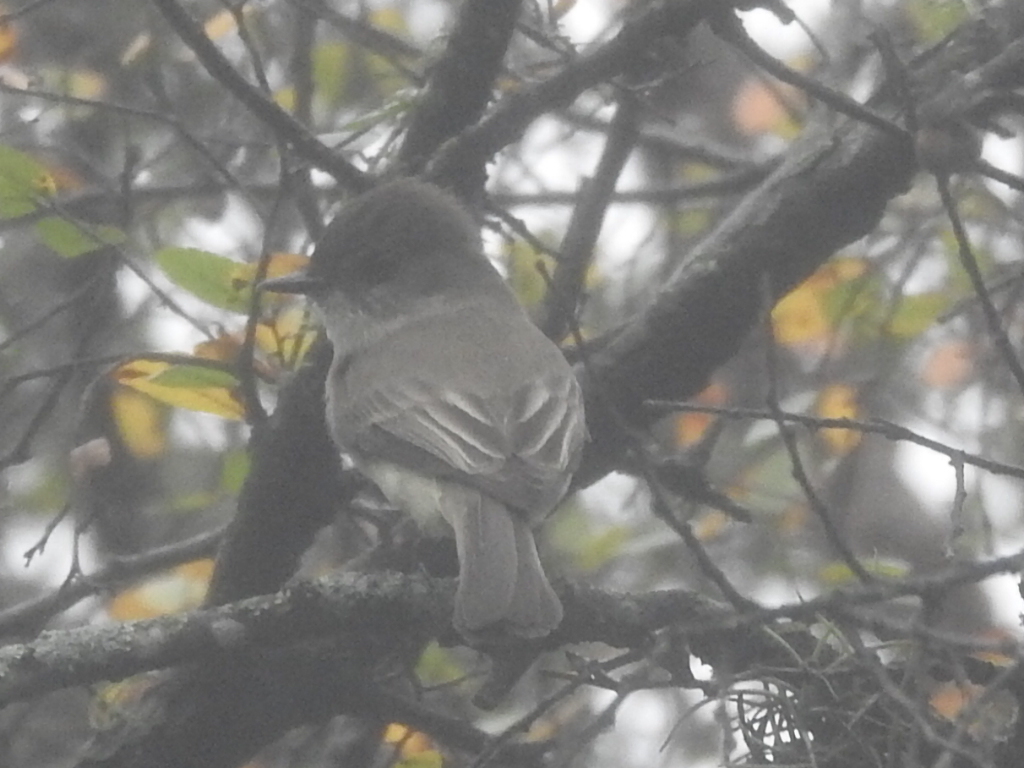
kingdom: Animalia
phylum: Chordata
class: Aves
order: Passeriformes
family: Tyrannidae
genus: Sayornis
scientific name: Sayornis phoebe
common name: Eastern phoebe
